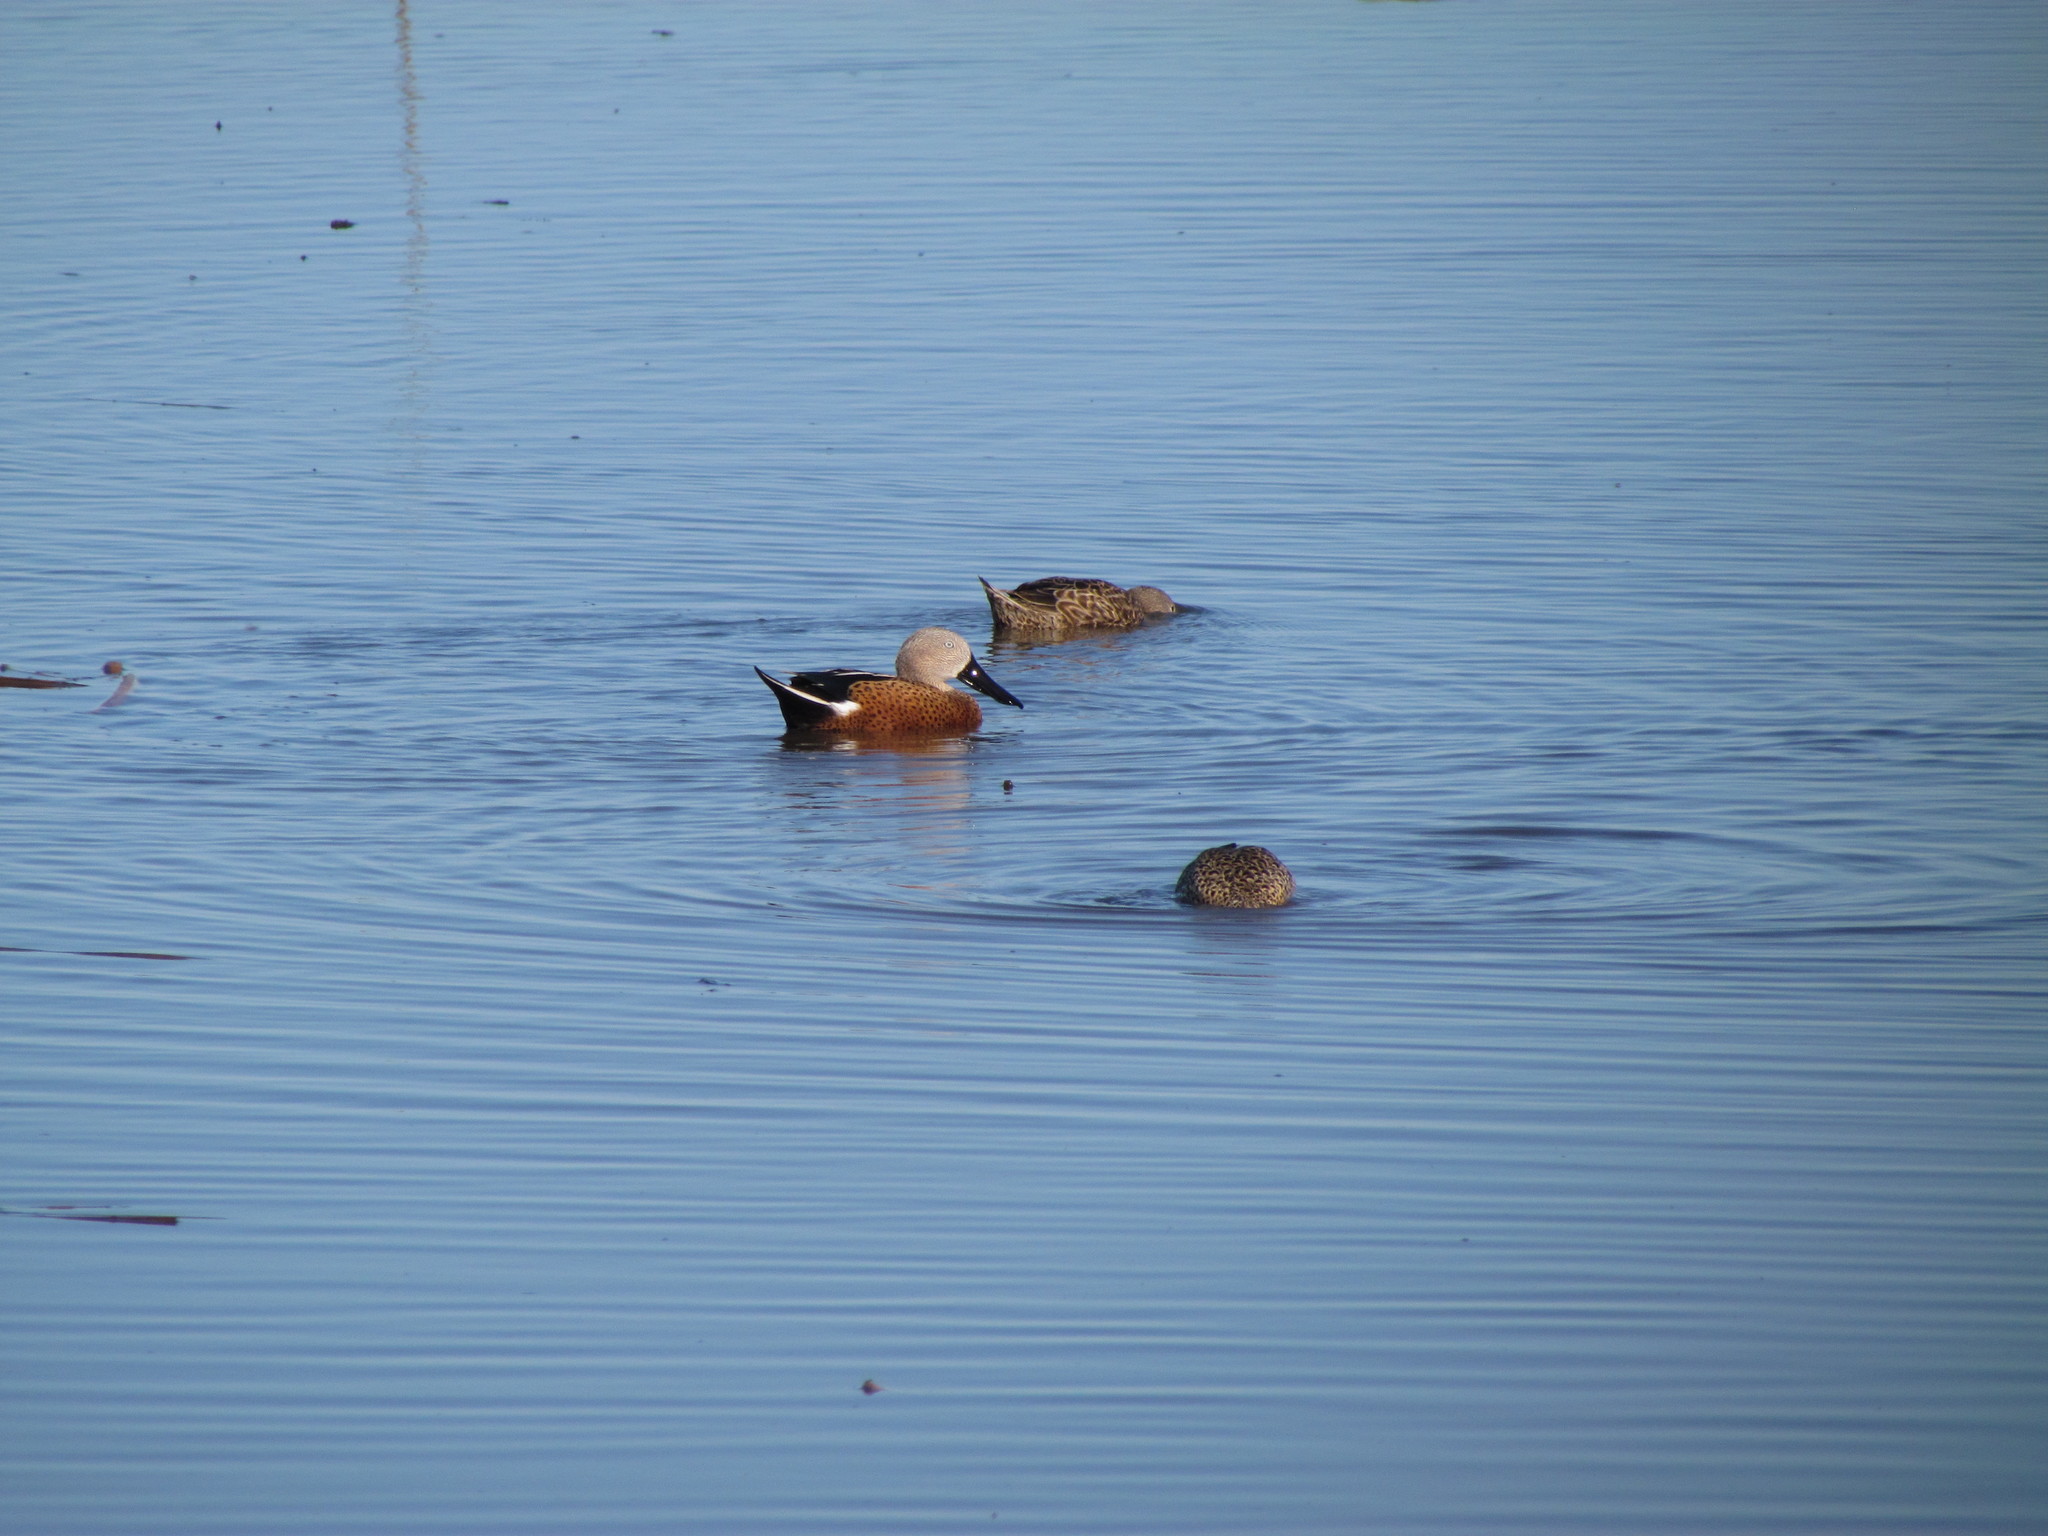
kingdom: Animalia
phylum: Chordata
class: Aves
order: Anseriformes
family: Anatidae
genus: Spatula
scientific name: Spatula platalea
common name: Red shoveler
